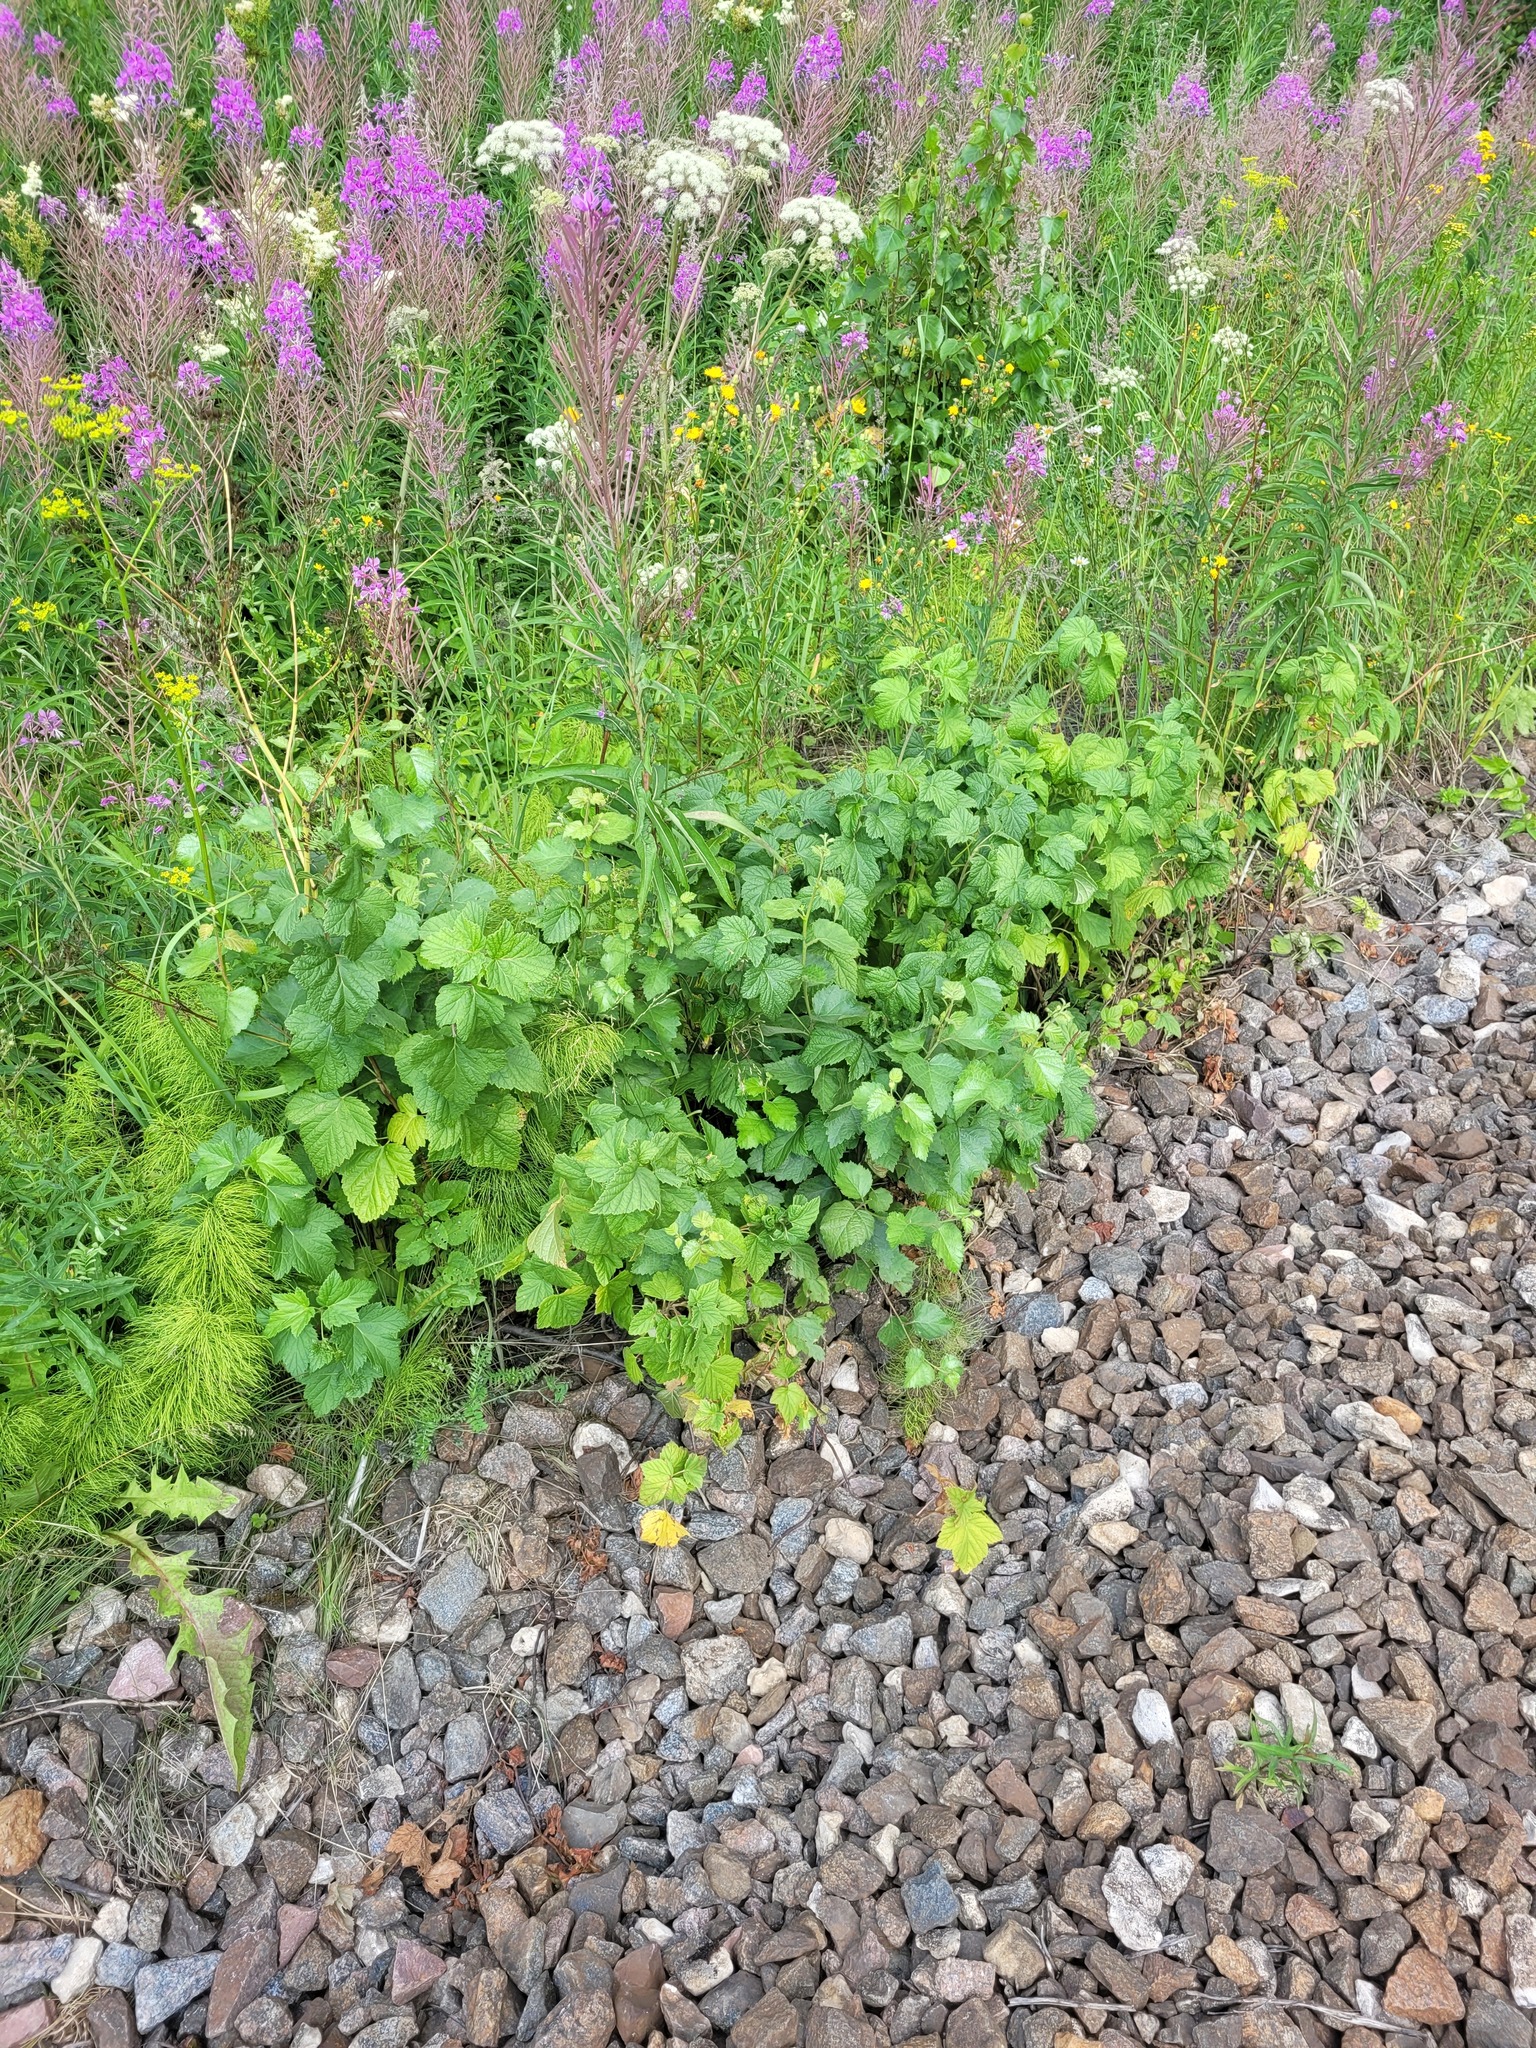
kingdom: Plantae
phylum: Tracheophyta
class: Magnoliopsida
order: Saxifragales
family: Grossulariaceae
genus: Ribes
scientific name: Ribes nigrum
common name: Black currant
